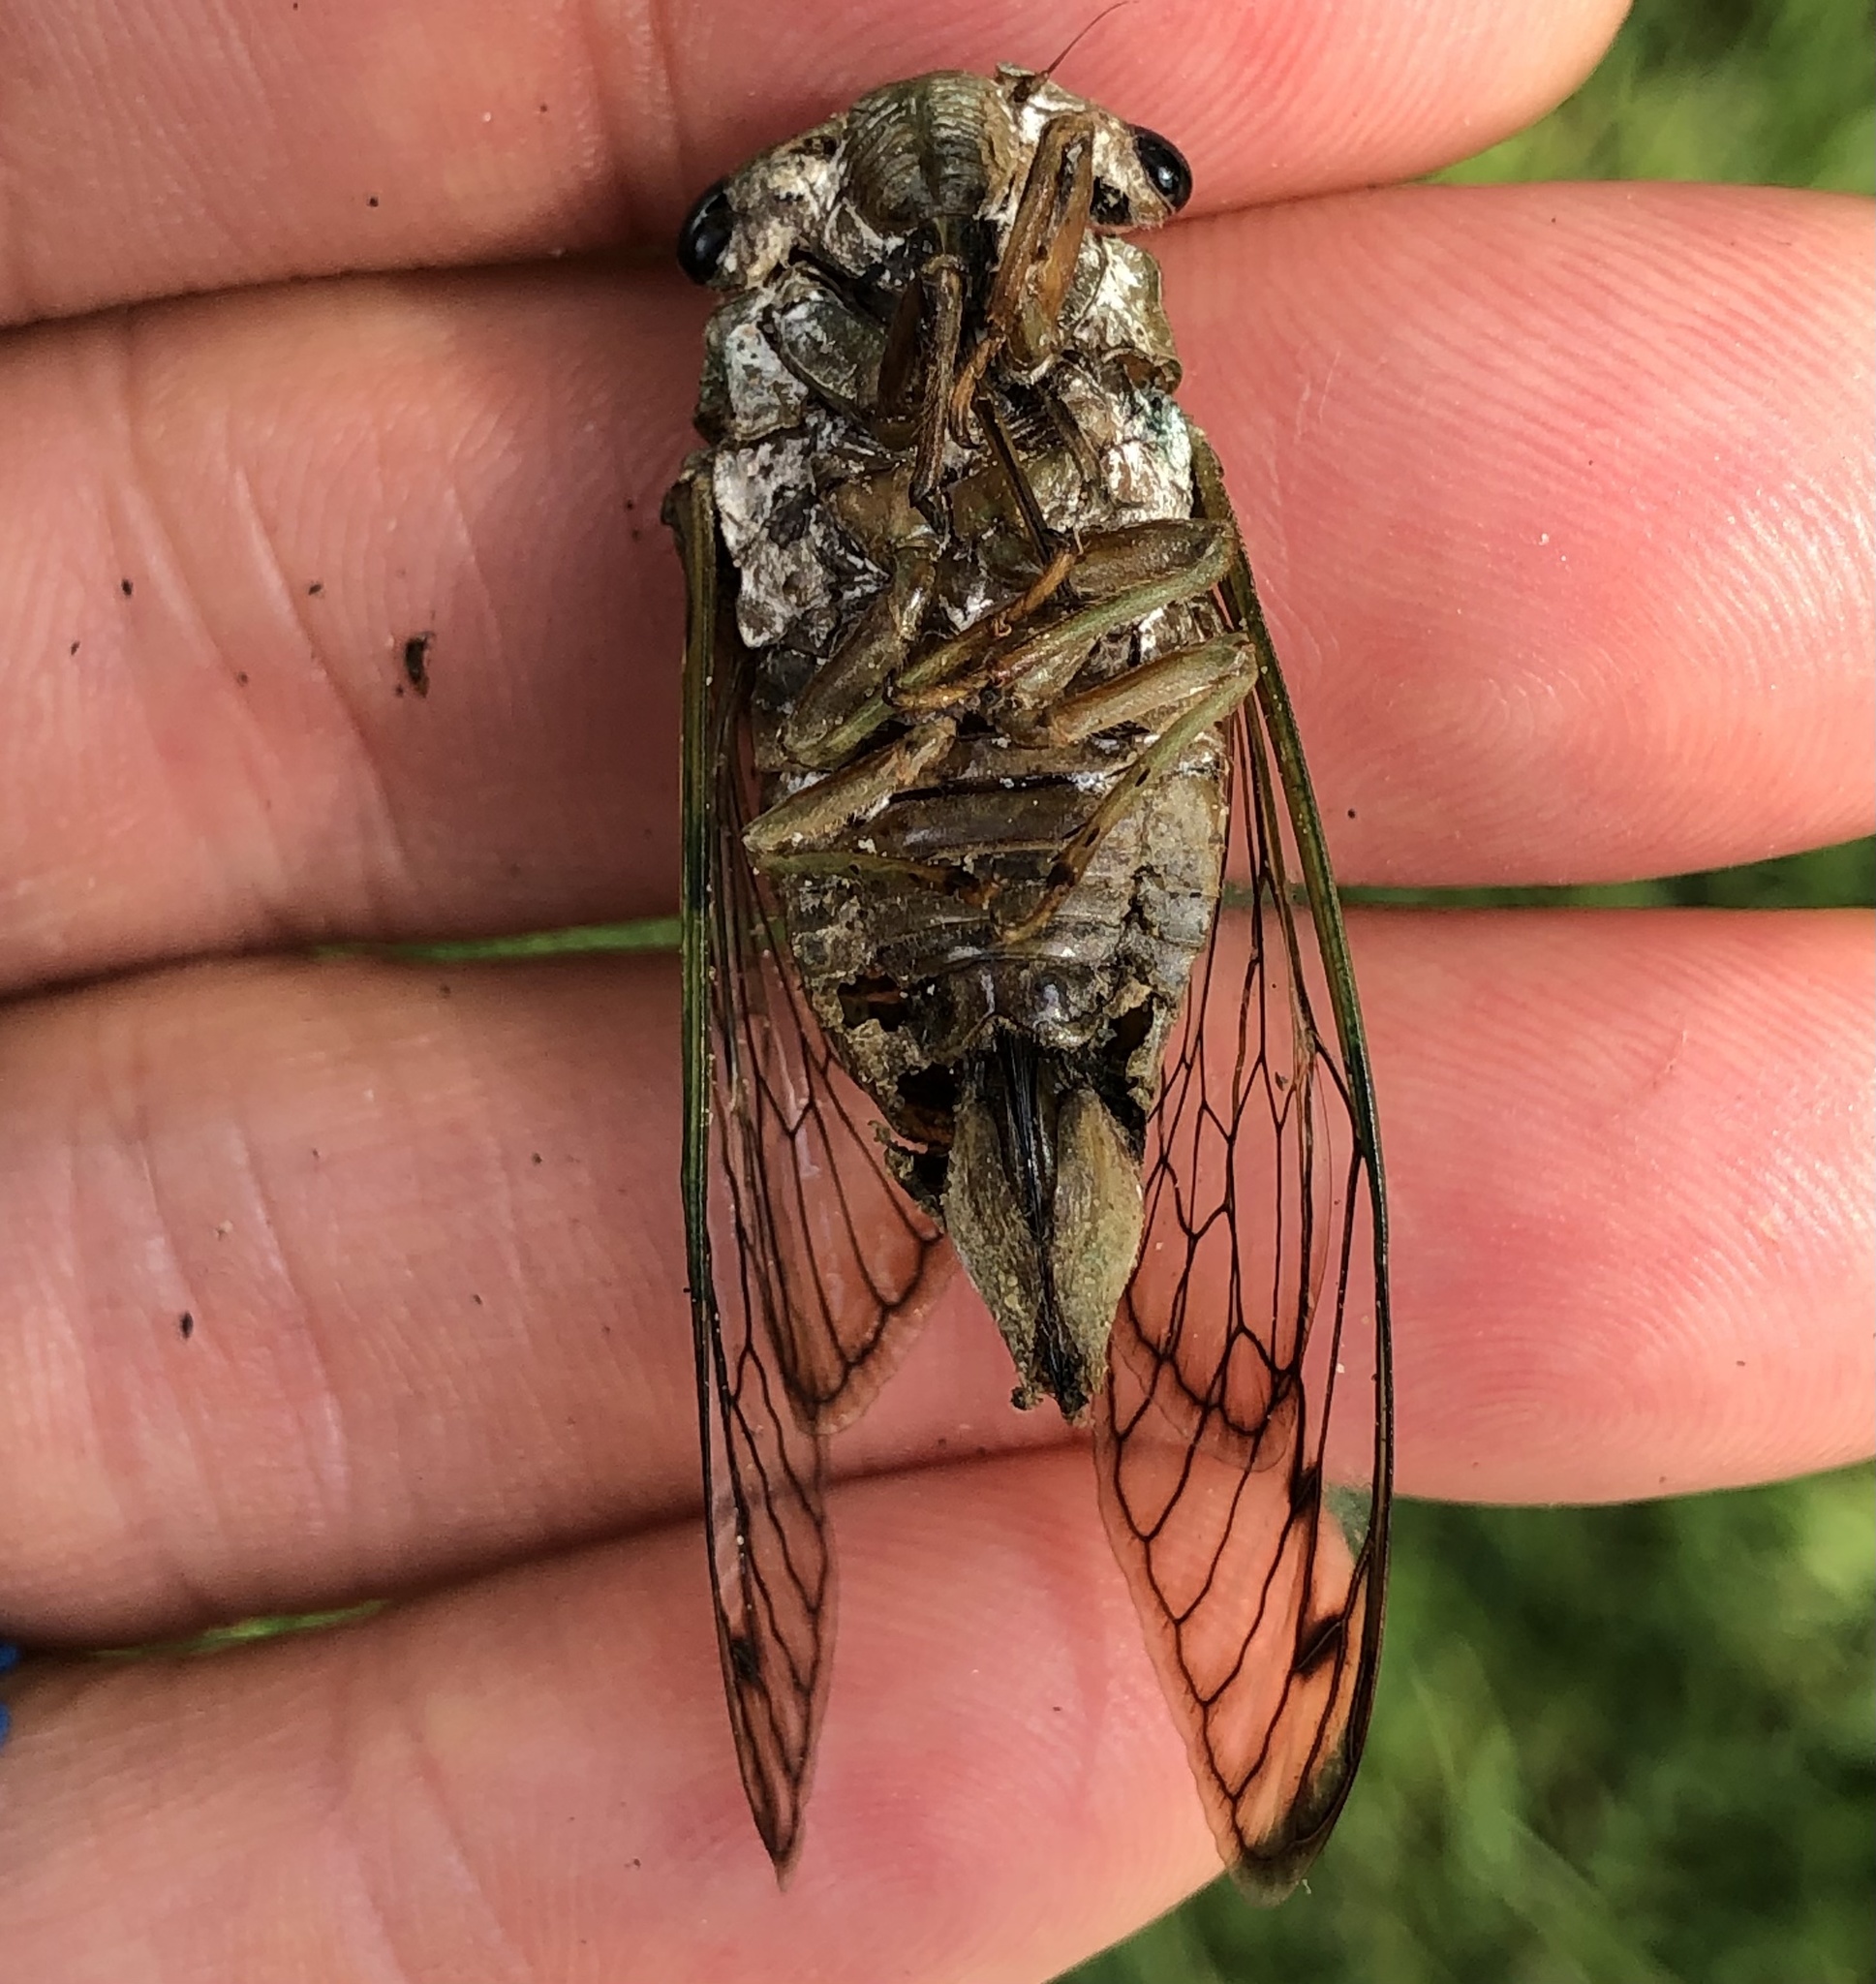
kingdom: Animalia
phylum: Arthropoda
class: Insecta
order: Hemiptera
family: Cicadidae
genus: Neotibicen
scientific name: Neotibicen superbus
